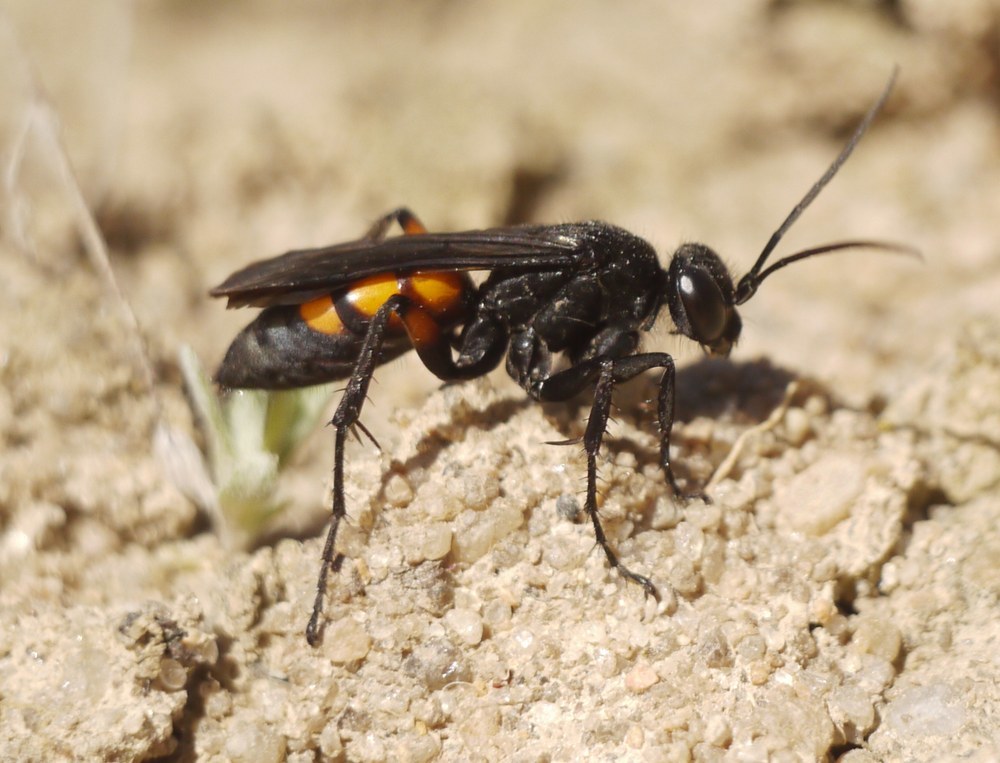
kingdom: Animalia
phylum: Arthropoda
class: Insecta
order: Hymenoptera
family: Pompilidae
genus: Anoplius
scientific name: Anoplius viaticus
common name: Black banded spider wasp
